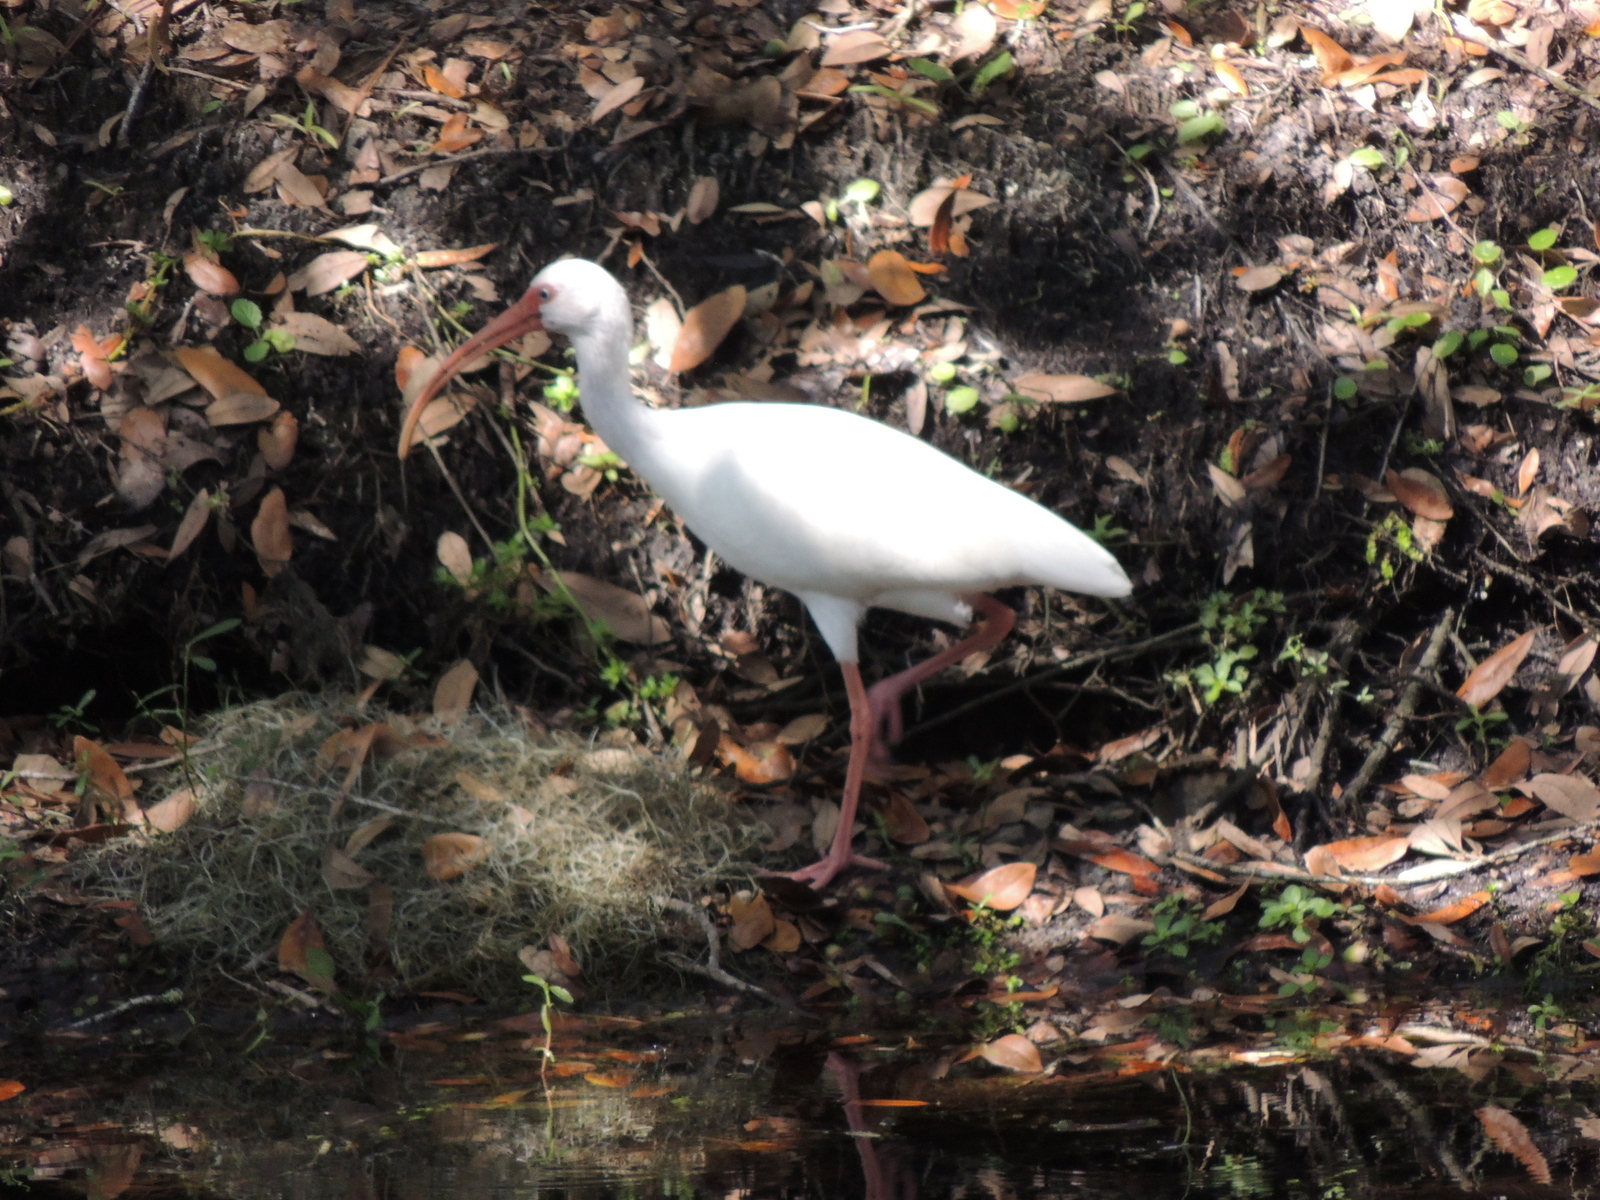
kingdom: Animalia
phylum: Chordata
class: Aves
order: Pelecaniformes
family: Threskiornithidae
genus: Eudocimus
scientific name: Eudocimus albus
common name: White ibis
